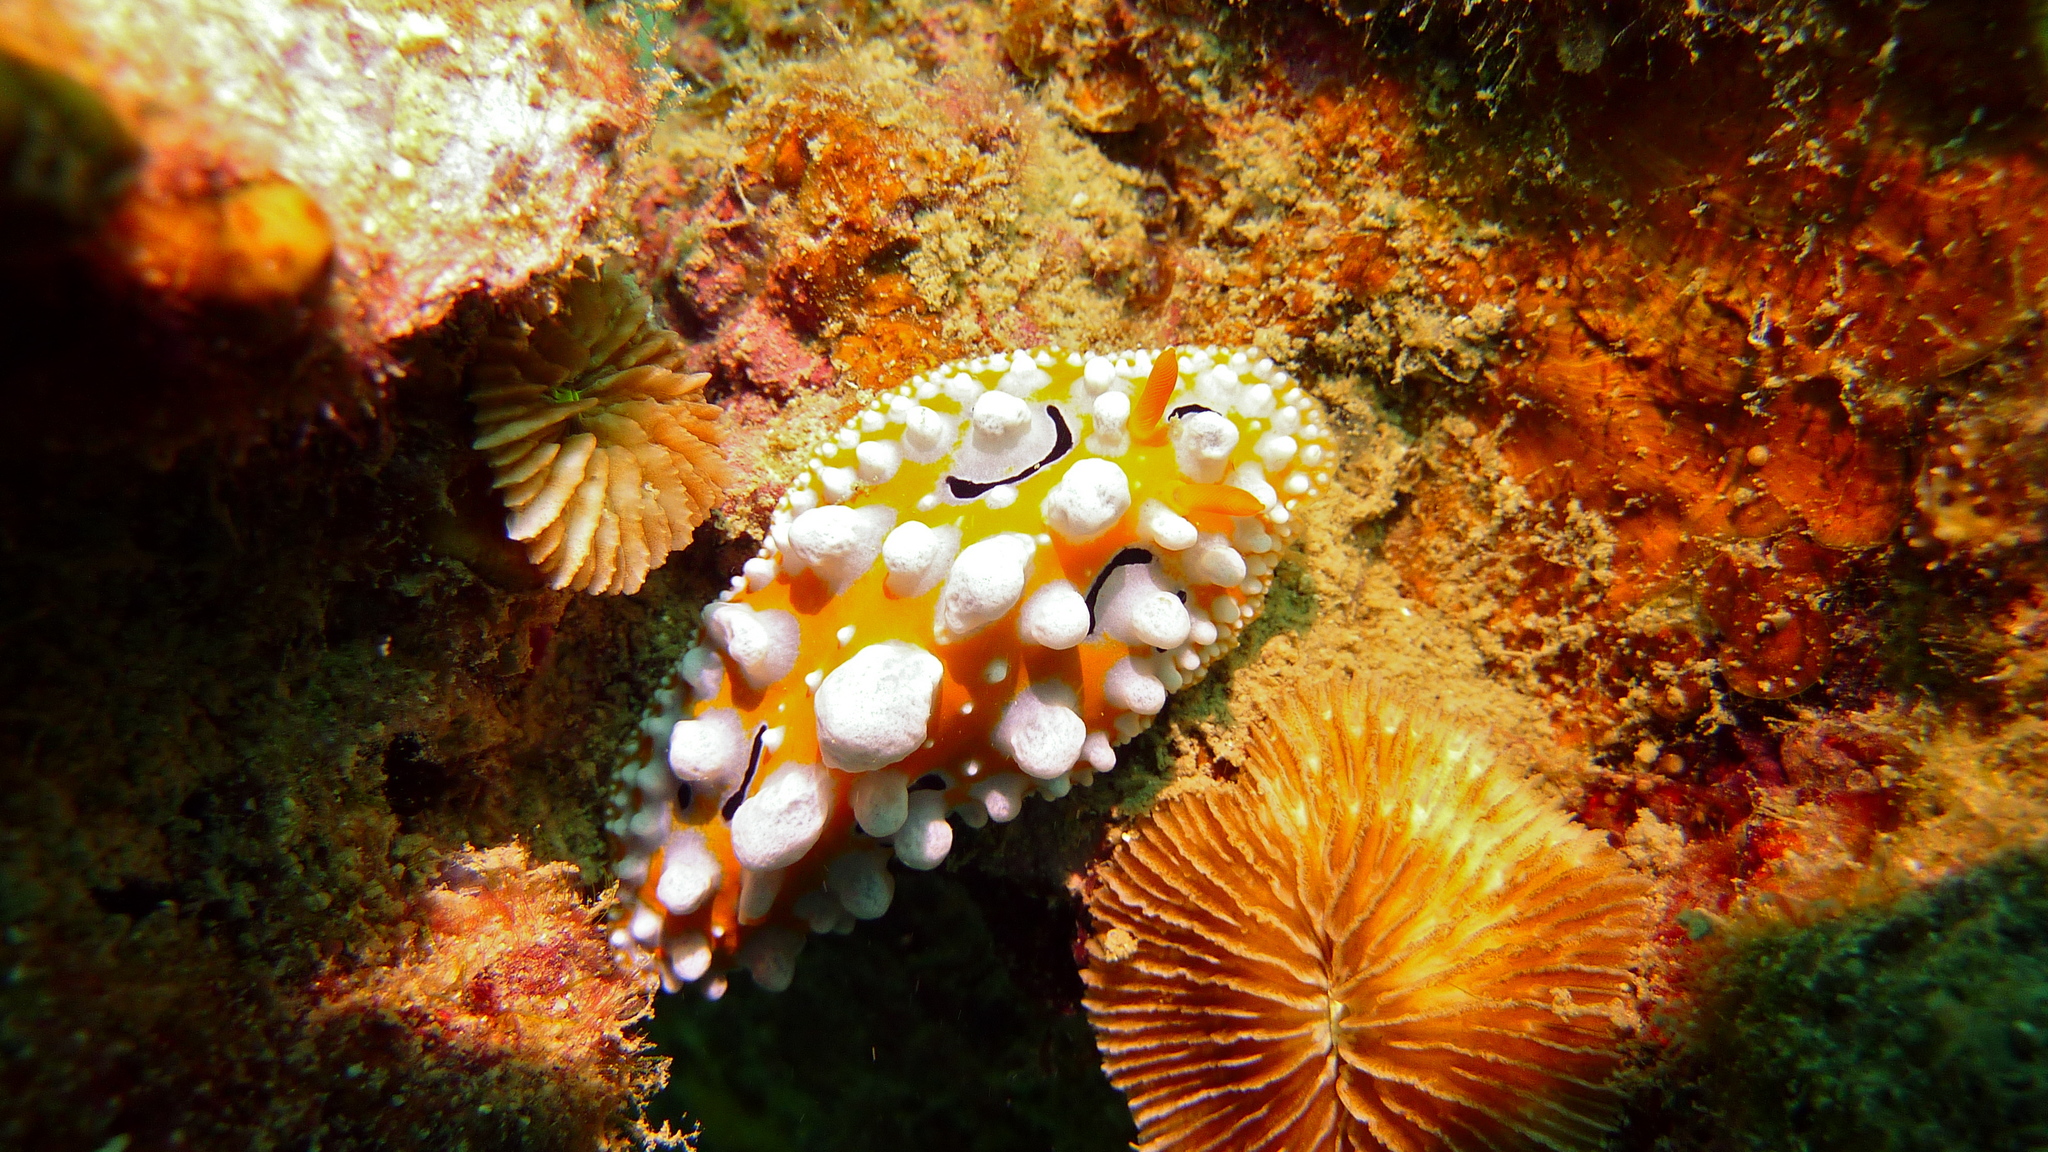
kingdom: Animalia
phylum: Mollusca
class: Gastropoda
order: Nudibranchia
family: Phyllidiidae
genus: Phyllidia
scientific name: Phyllidia ocellata
